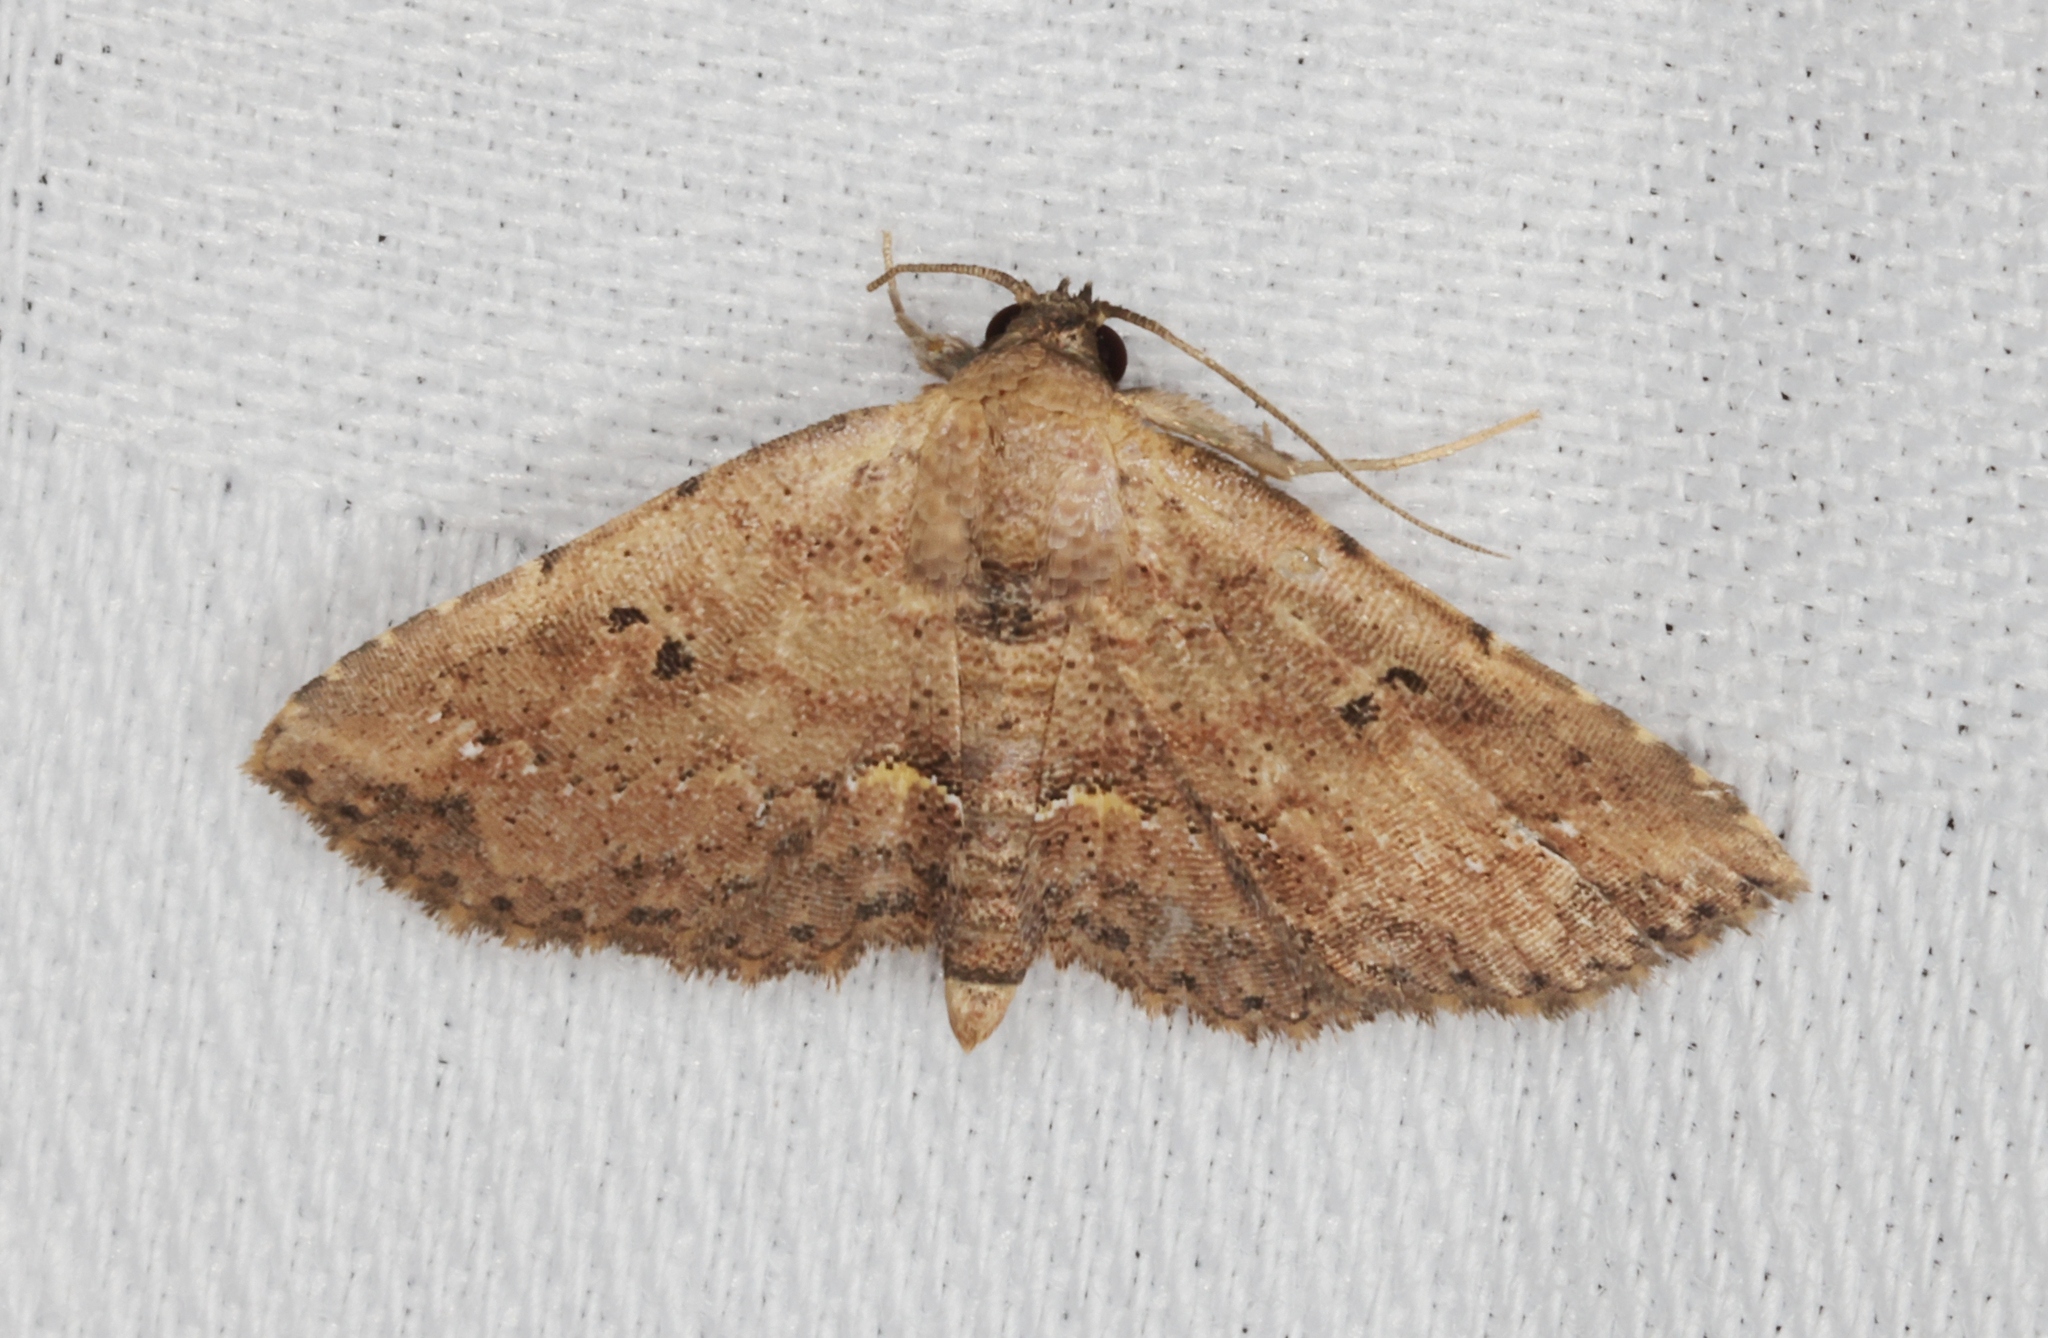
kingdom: Animalia
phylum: Arthropoda
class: Insecta
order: Lepidoptera
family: Noctuidae
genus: Cerynea
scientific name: Cerynea discontenta
